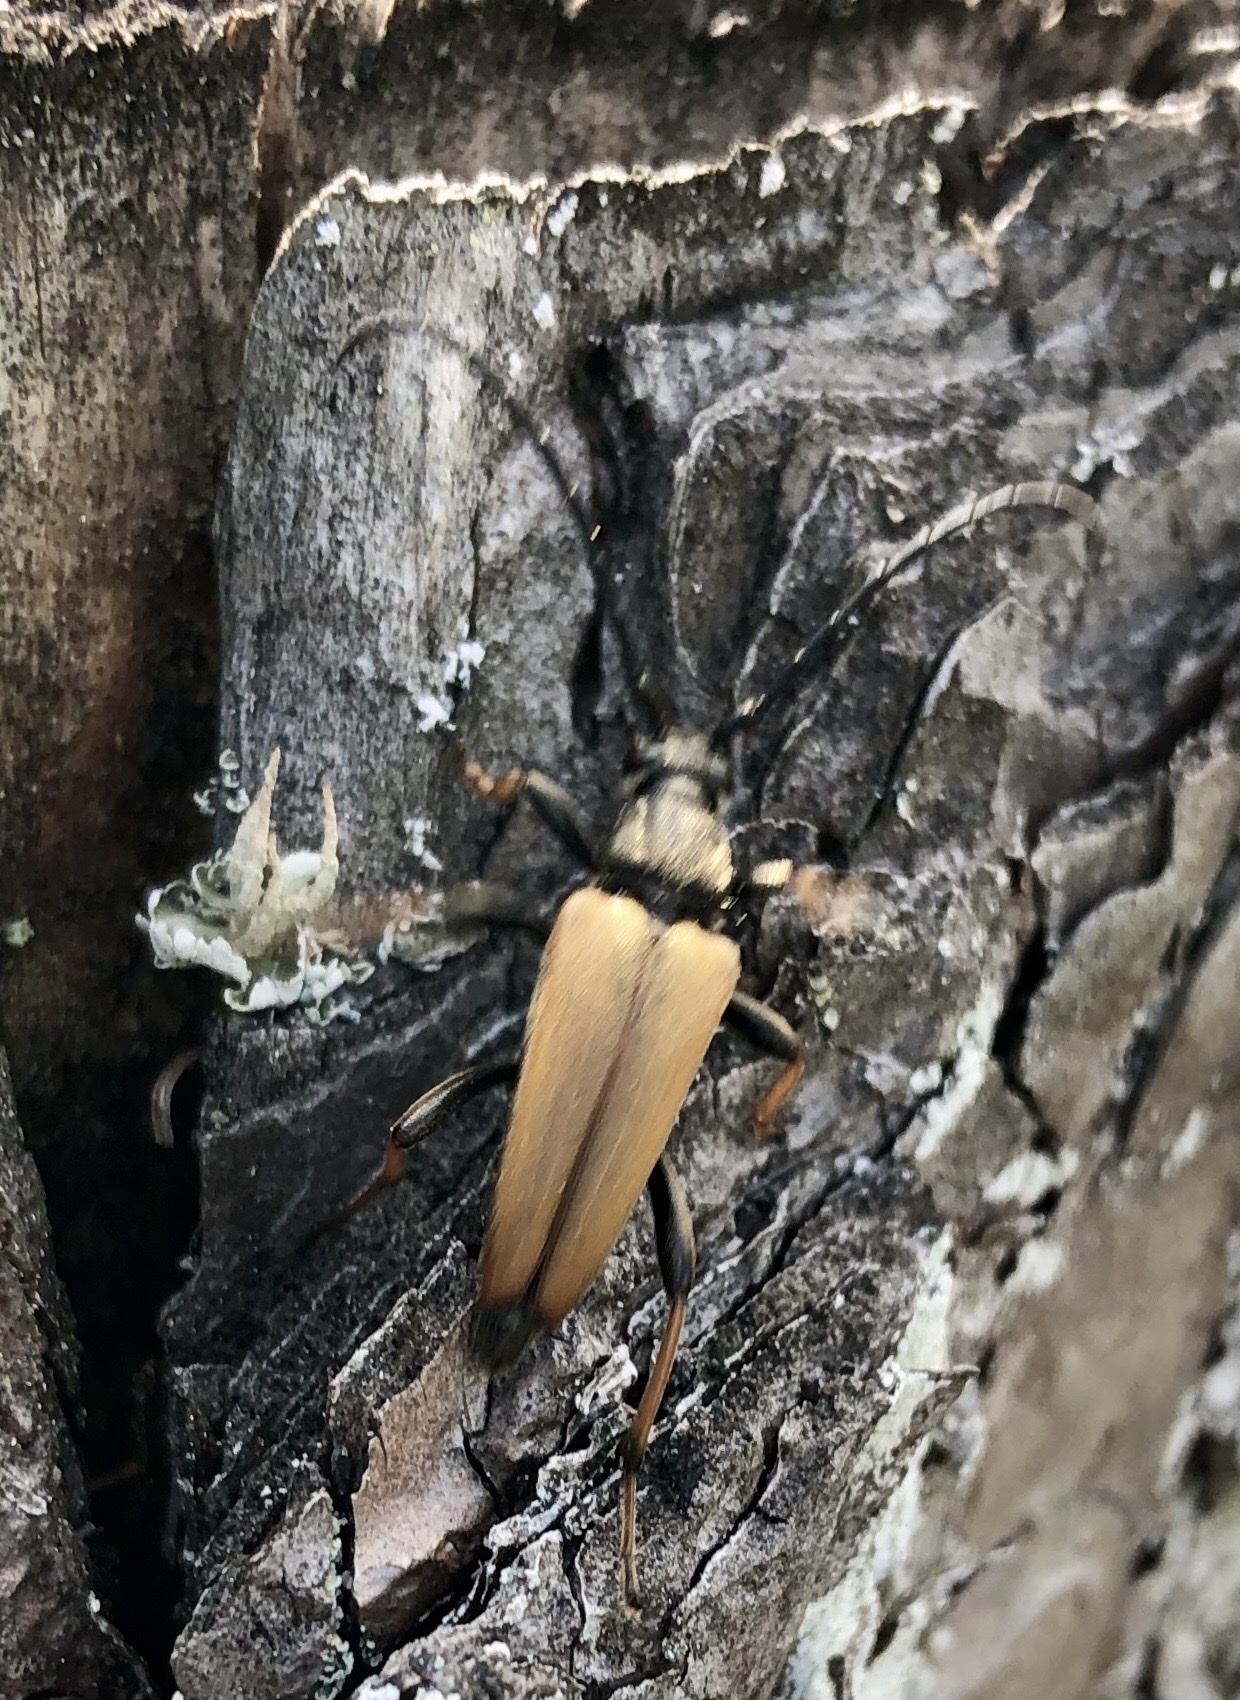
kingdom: Animalia
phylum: Arthropoda
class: Insecta
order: Coleoptera
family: Cerambycidae
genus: Stictoleptura
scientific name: Stictoleptura rubra
